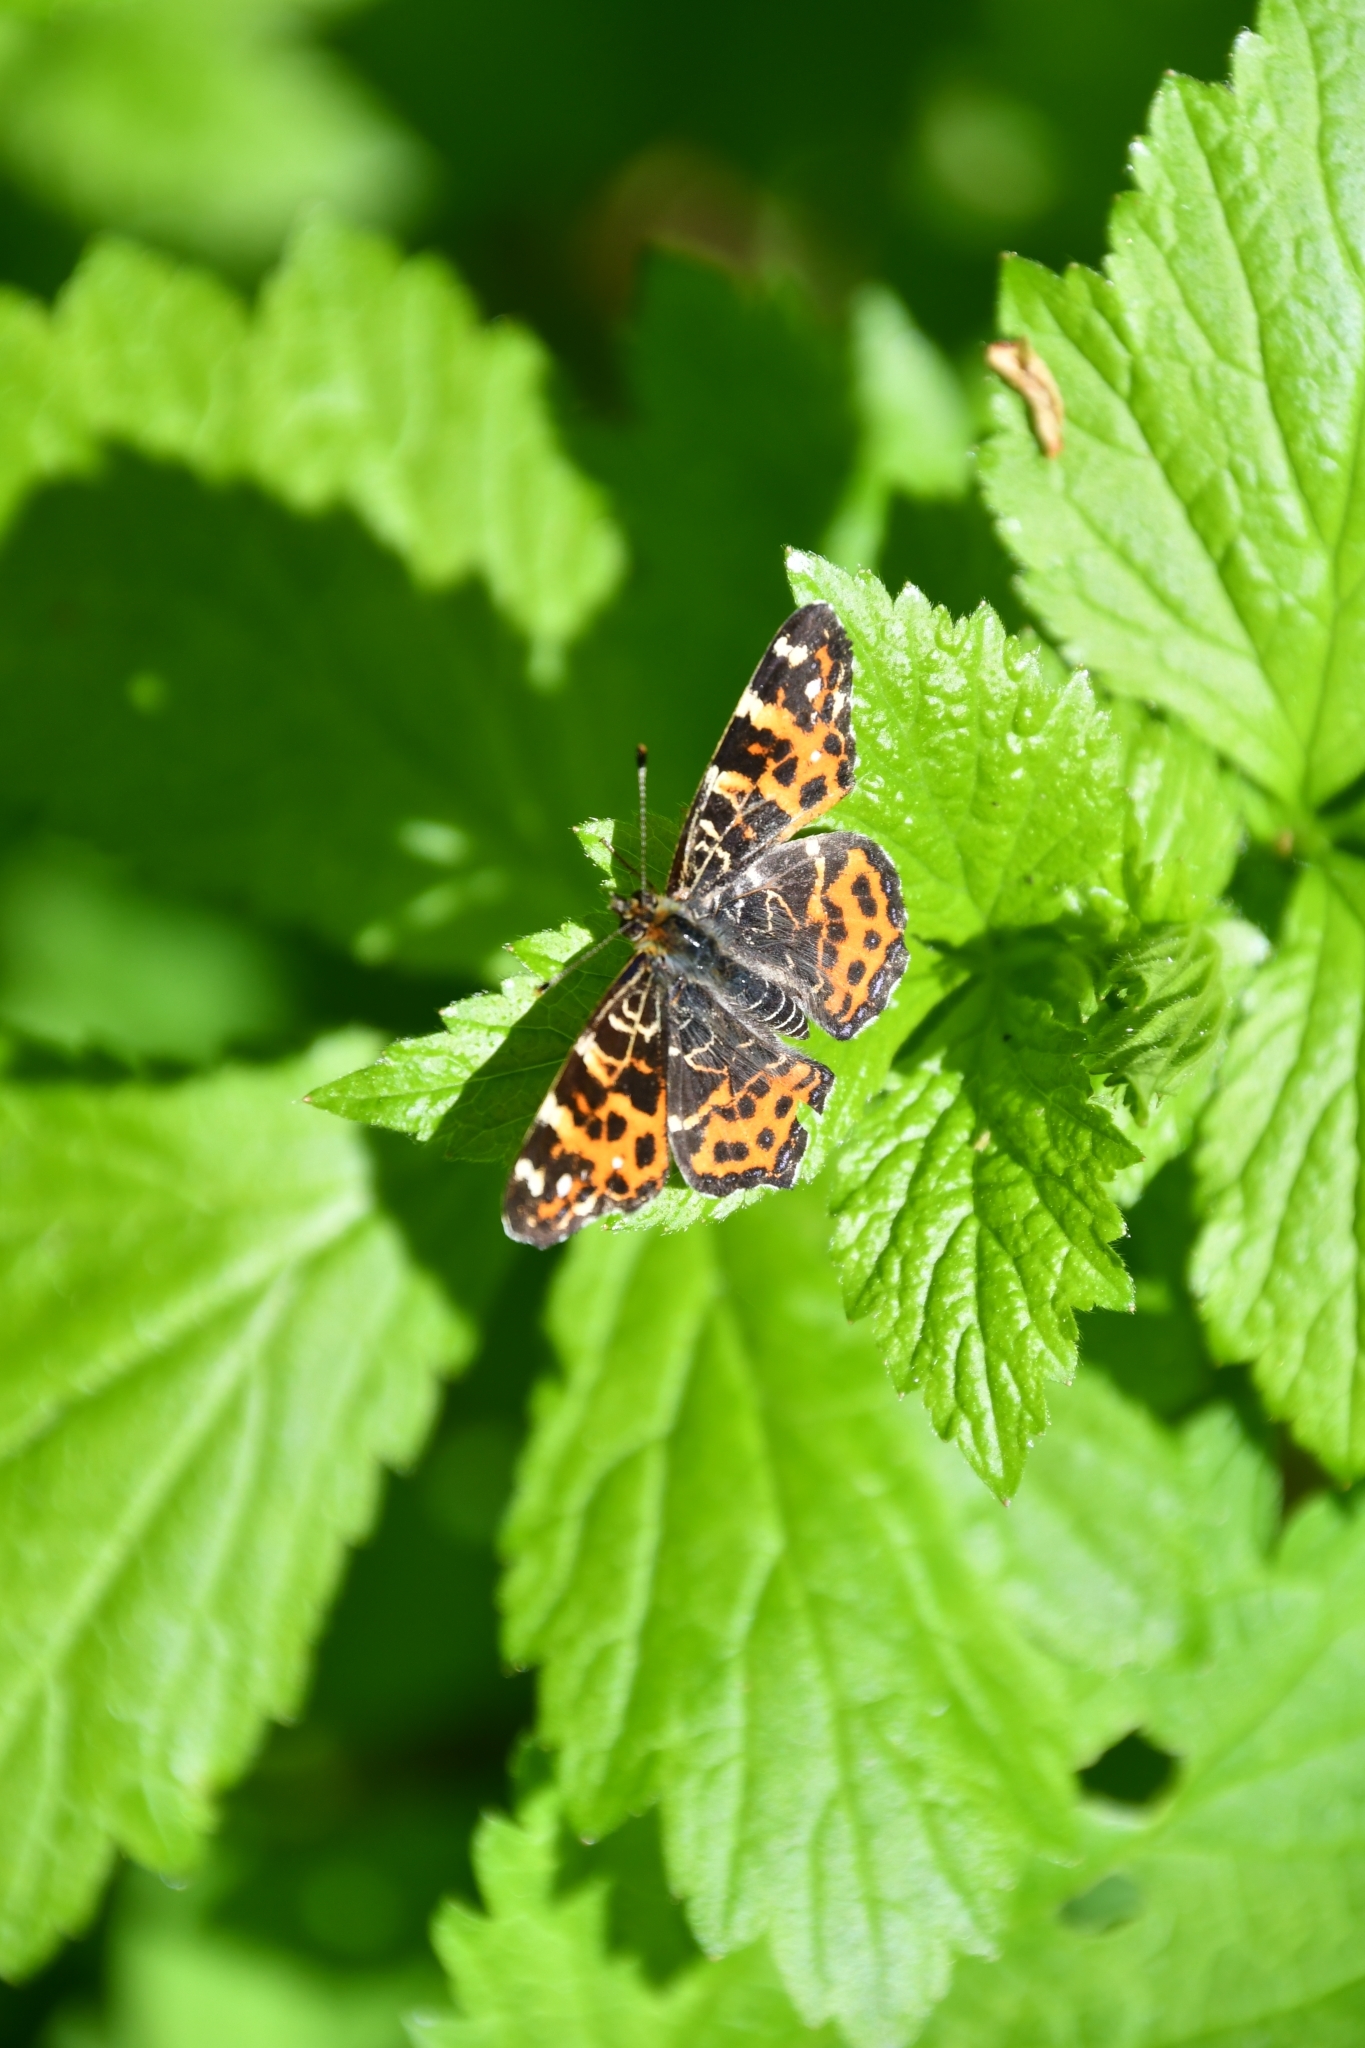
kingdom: Animalia
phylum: Arthropoda
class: Insecta
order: Lepidoptera
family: Nymphalidae
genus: Araschnia
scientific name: Araschnia levana
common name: Map butterfly
